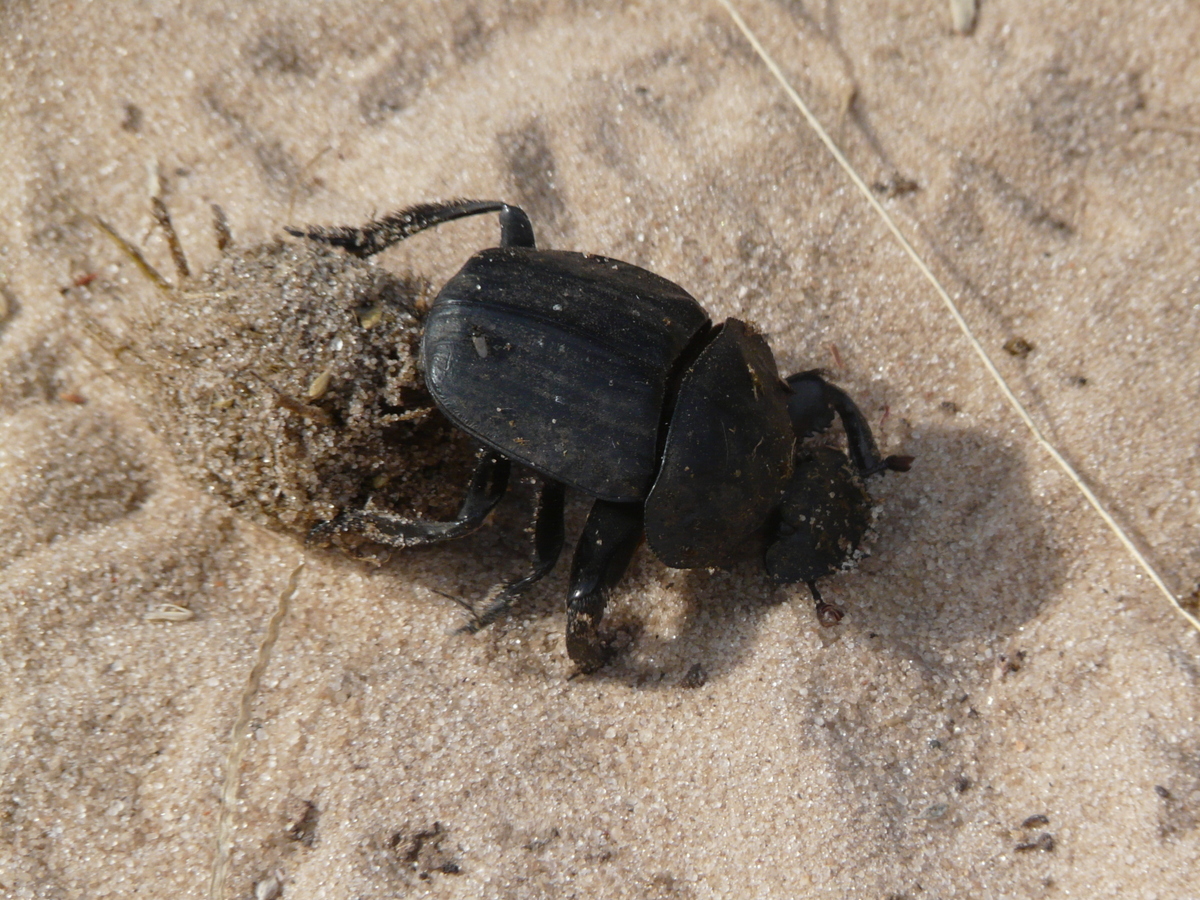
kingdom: Animalia
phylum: Arthropoda
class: Insecta
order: Coleoptera
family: Scarabaeidae
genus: Pachylomera
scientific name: Pachylomera femoralis
